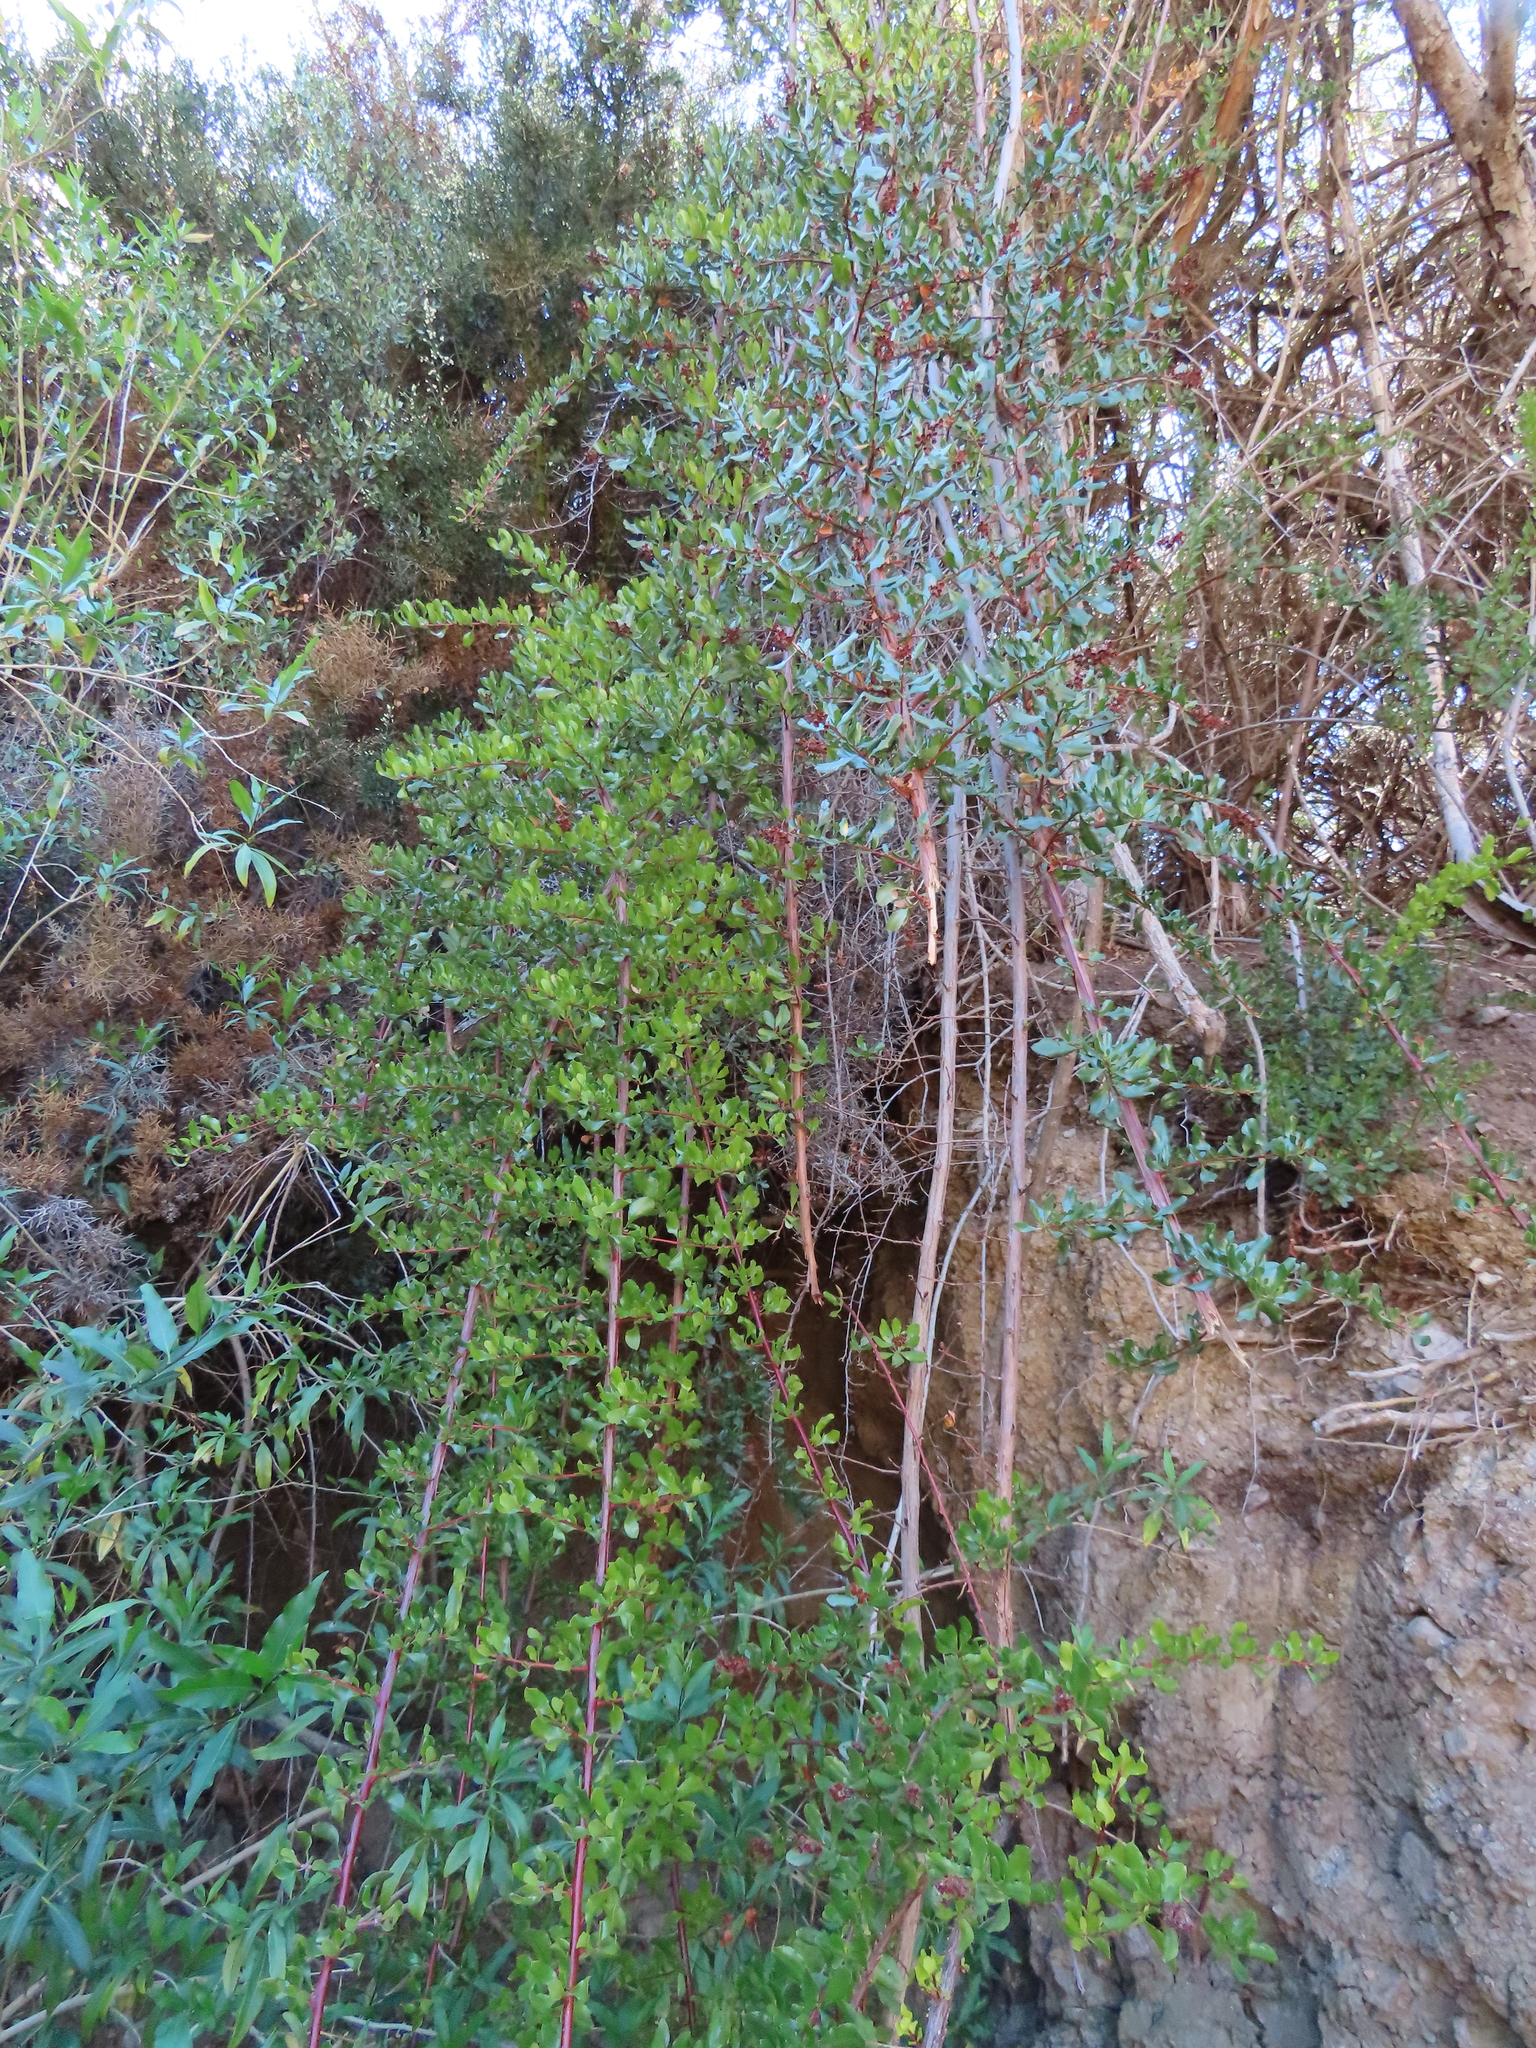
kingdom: Plantae
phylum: Tracheophyta
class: Magnoliopsida
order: Escalloniales
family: Escalloniaceae
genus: Escallonia
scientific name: Escallonia illinita
